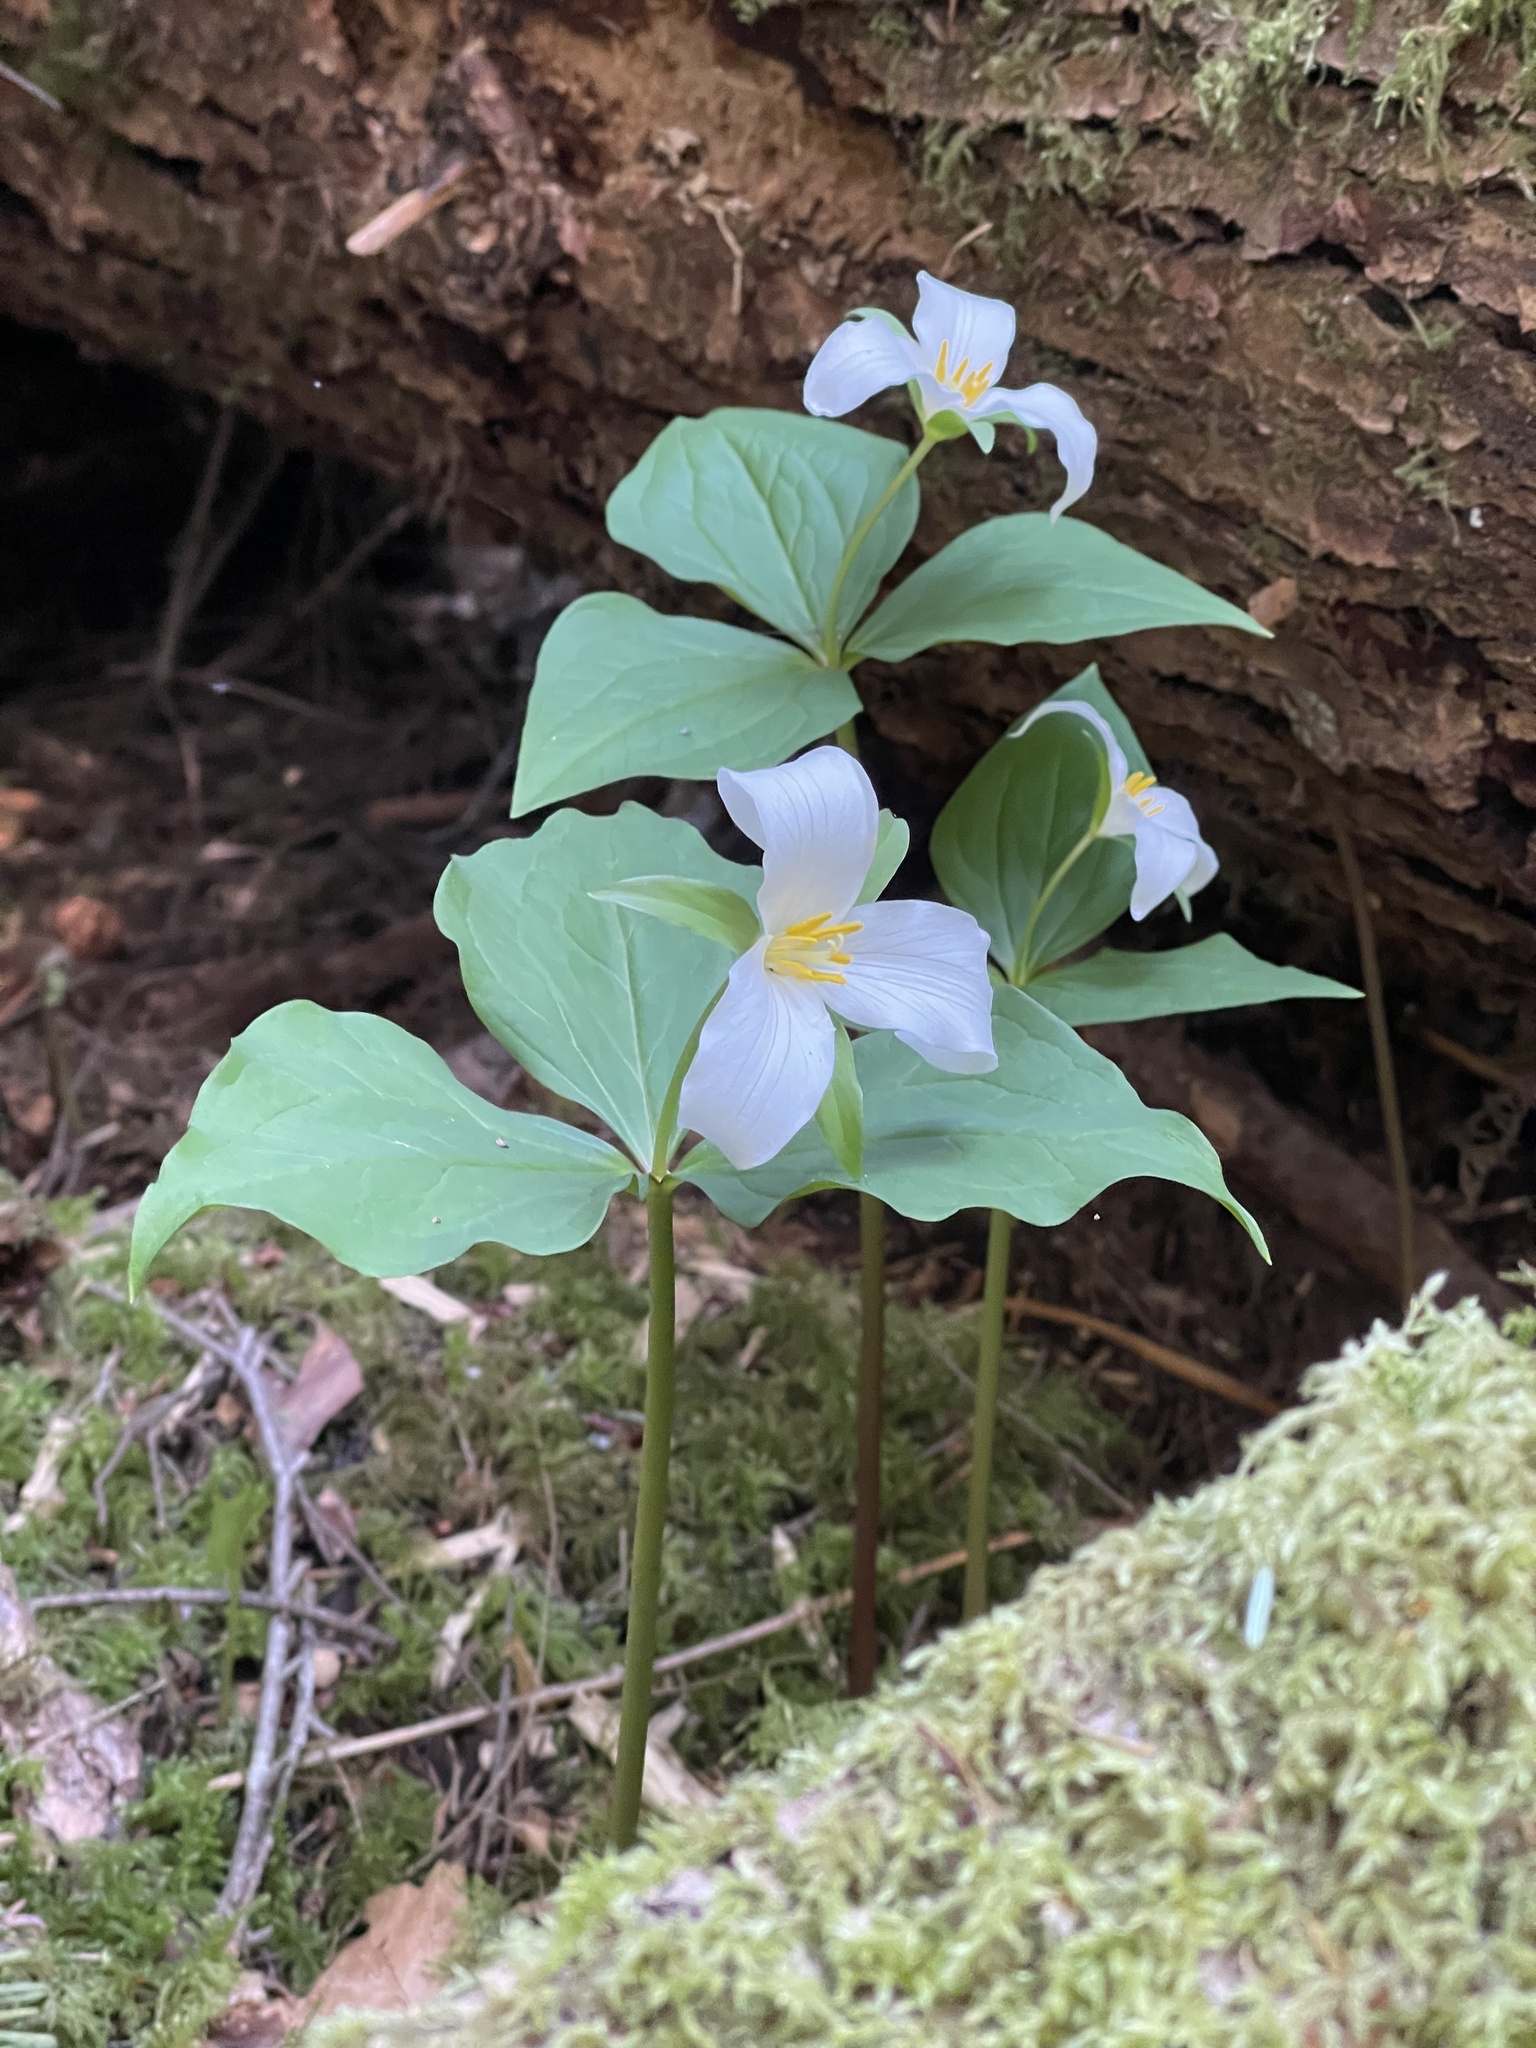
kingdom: Plantae
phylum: Tracheophyta
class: Liliopsida
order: Liliales
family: Melanthiaceae
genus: Trillium
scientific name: Trillium ovatum
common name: Pacific trillium
